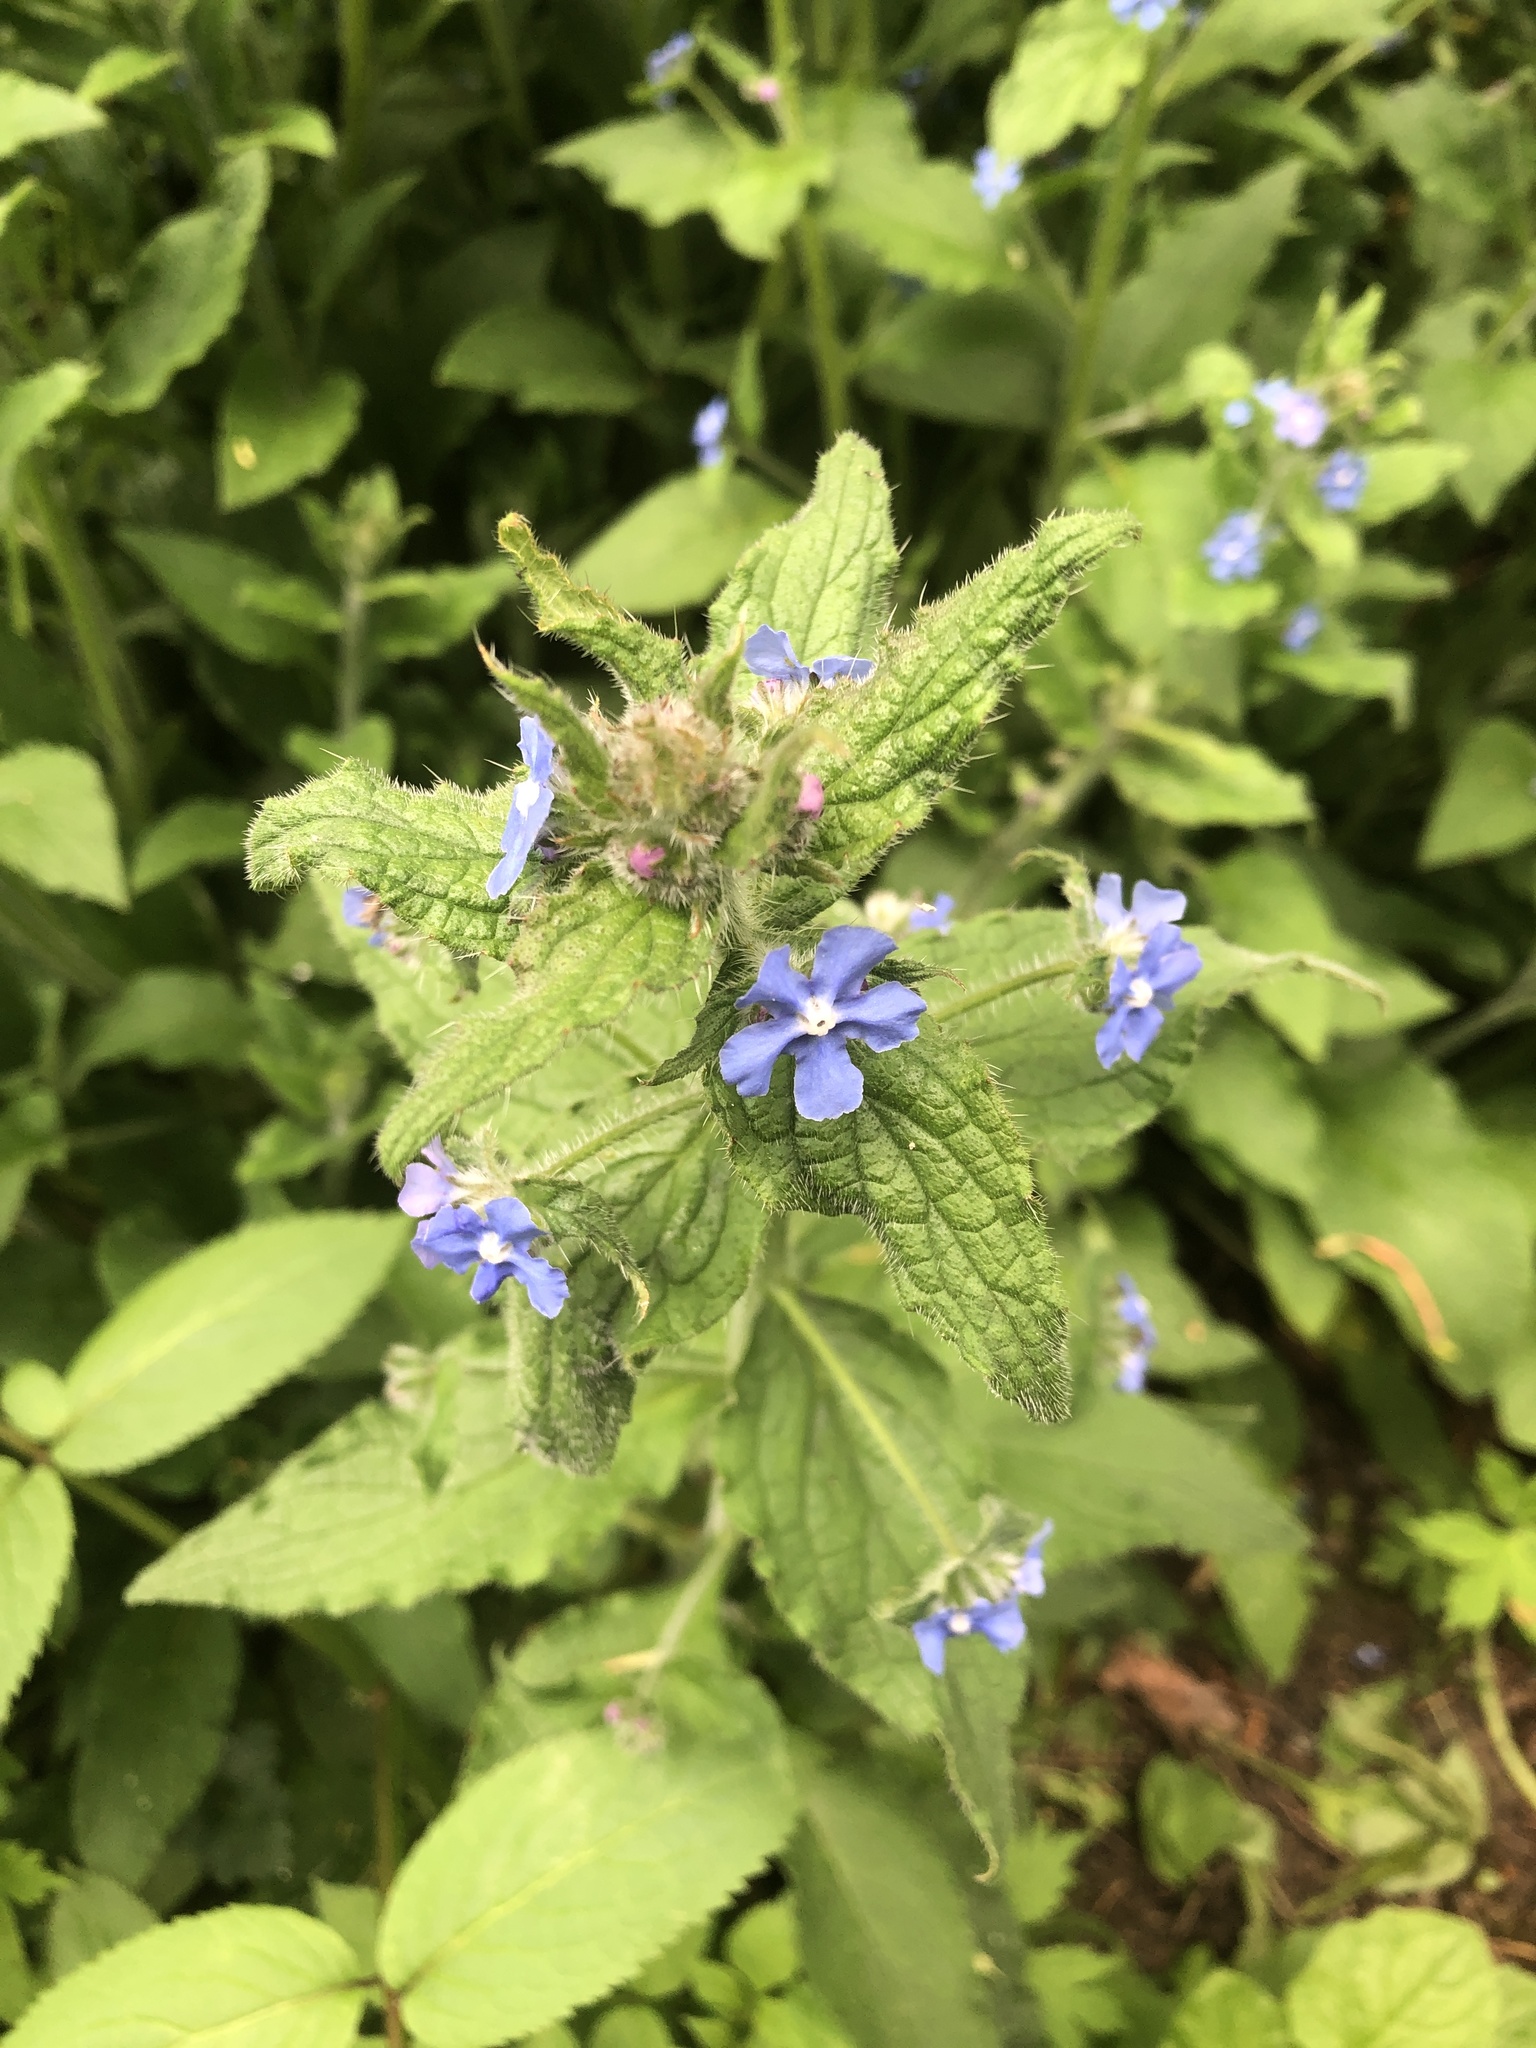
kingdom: Plantae
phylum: Tracheophyta
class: Magnoliopsida
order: Boraginales
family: Boraginaceae
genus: Pentaglottis
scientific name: Pentaglottis sempervirens
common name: Green alkanet
